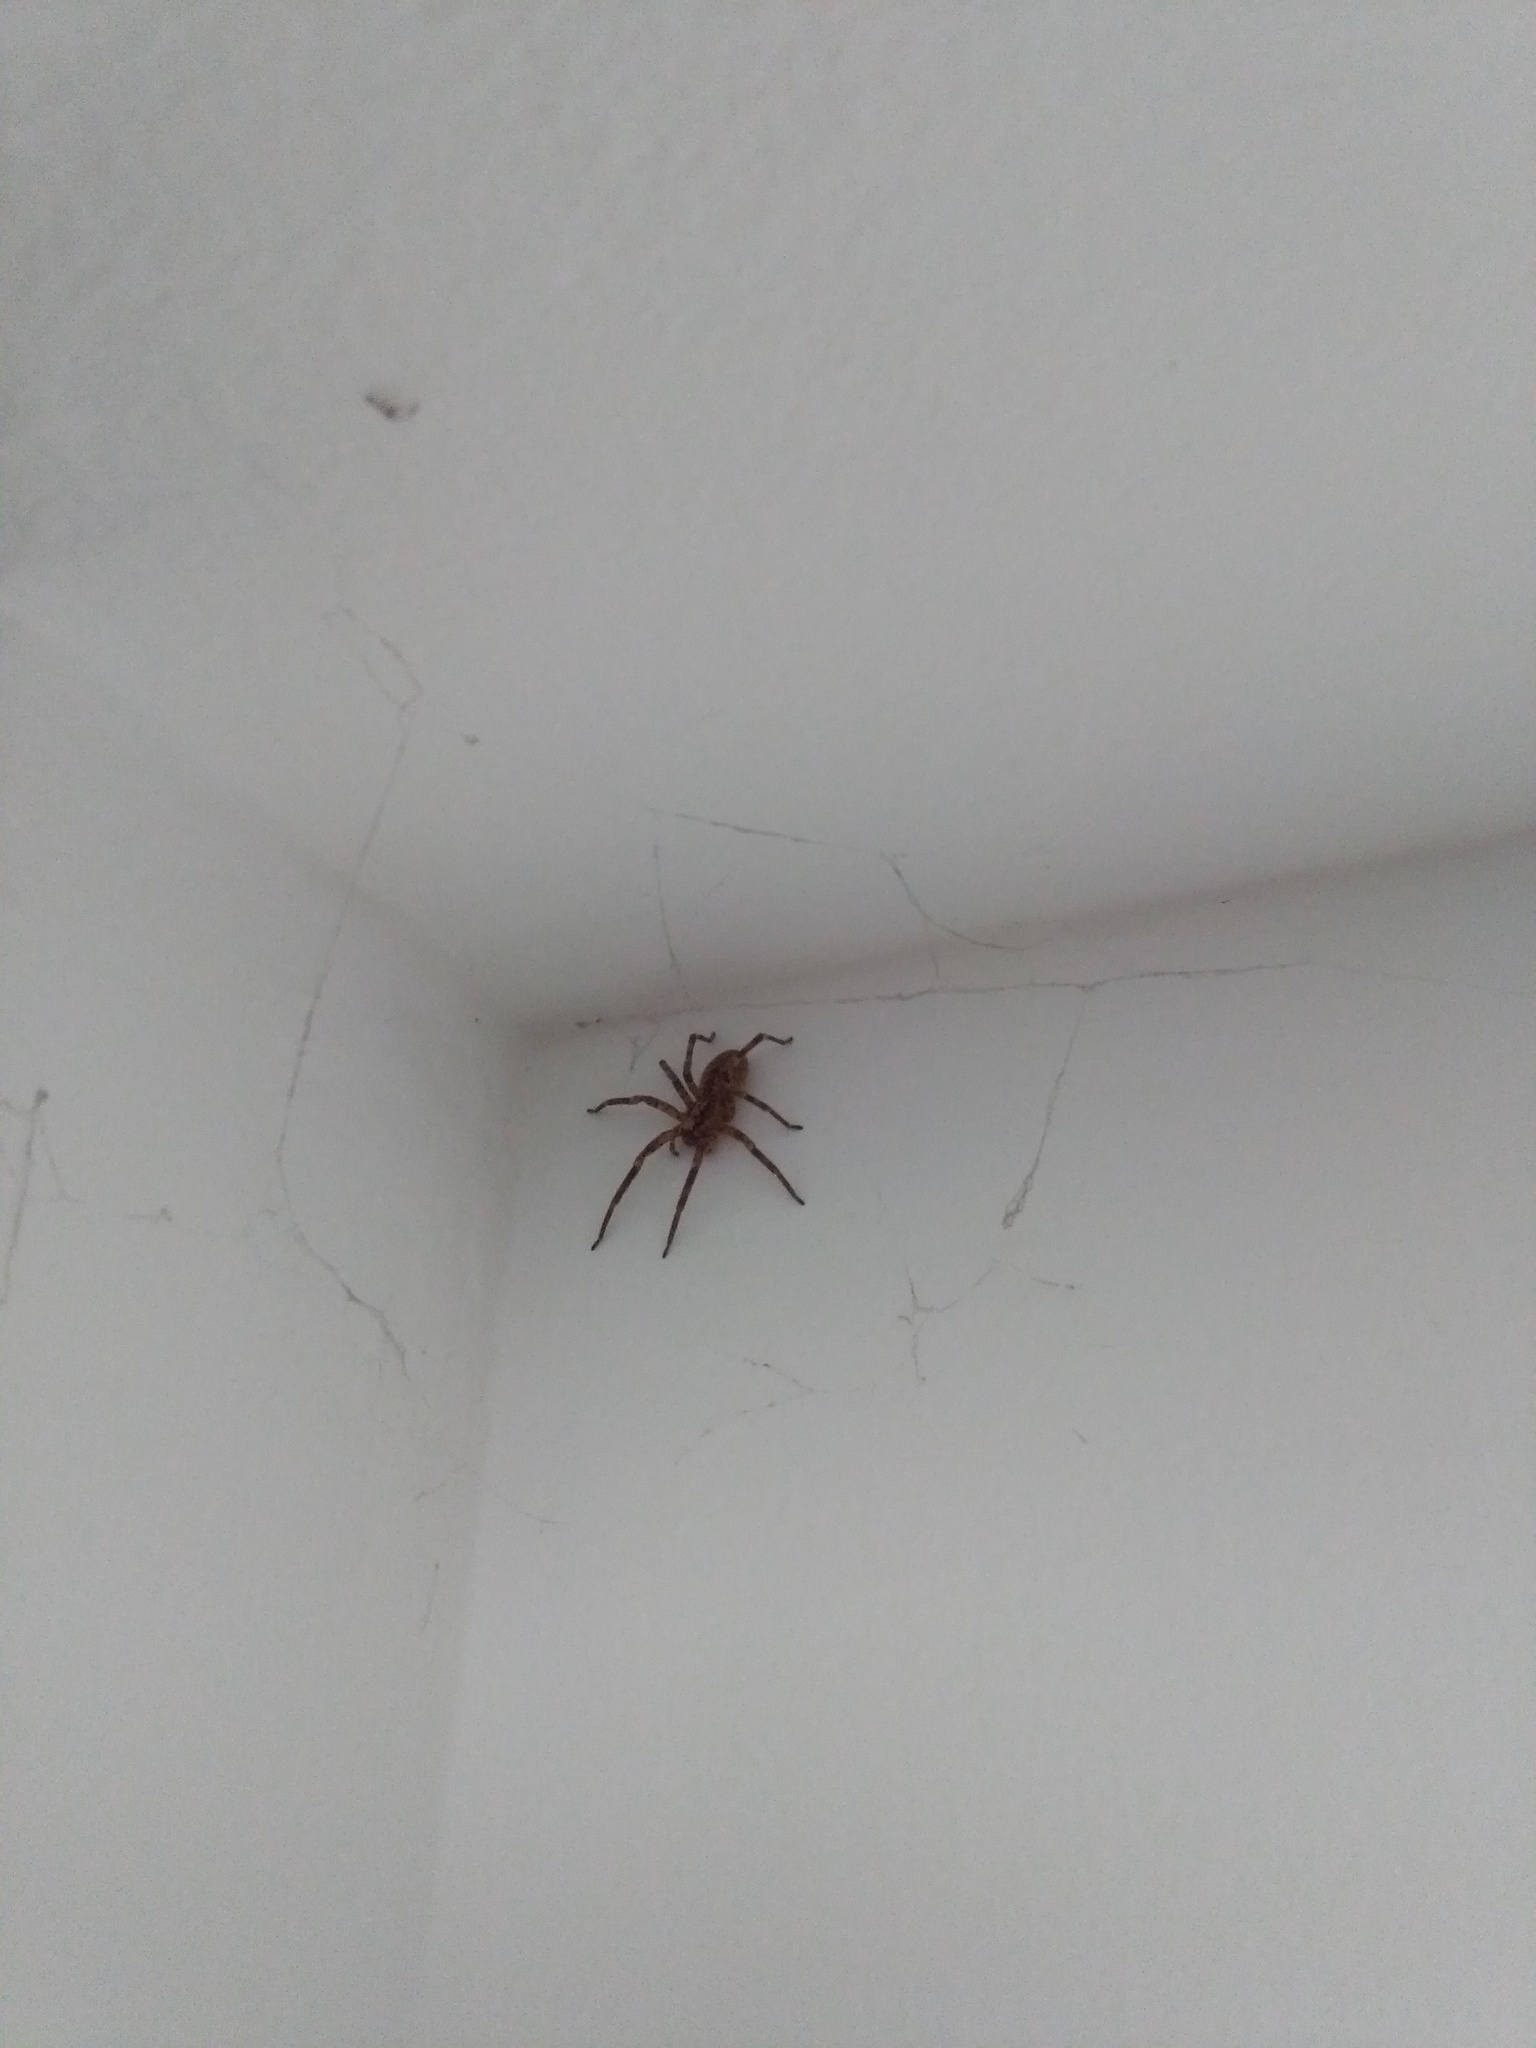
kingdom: Animalia
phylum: Arthropoda
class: Arachnida
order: Araneae
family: Zoropsidae
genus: Zoropsis
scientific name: Zoropsis spinimana
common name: Zoropsid spider
